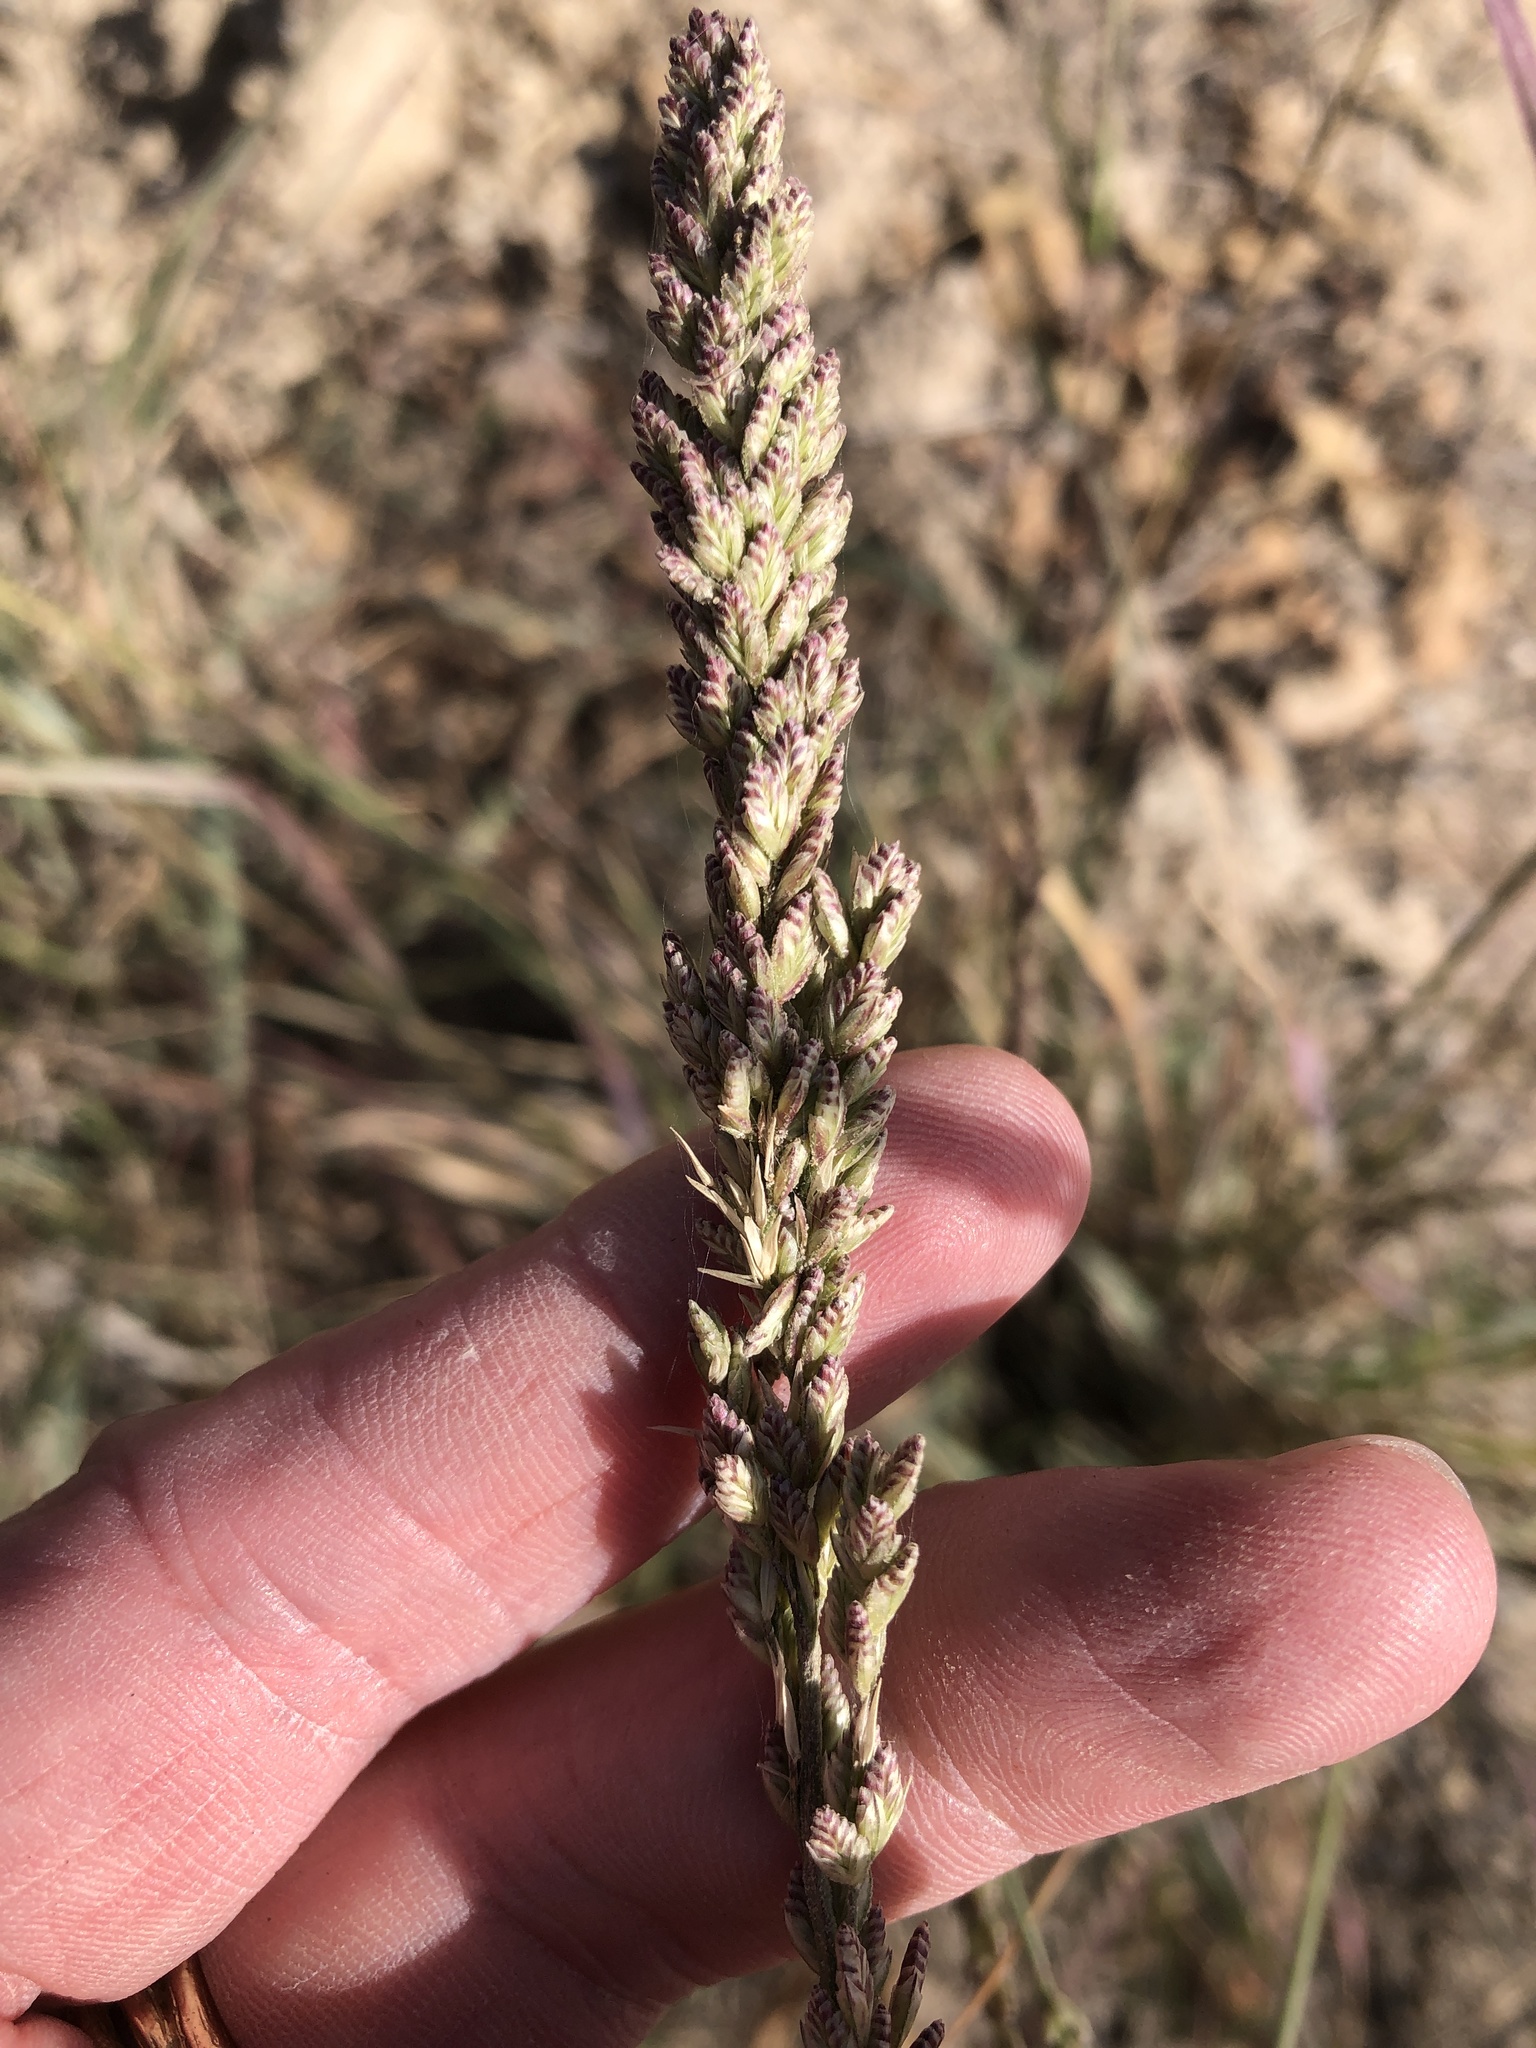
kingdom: Plantae
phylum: Tracheophyta
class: Liliopsida
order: Poales
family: Poaceae
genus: Tridens
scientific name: Tridens albescens
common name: White tridens
